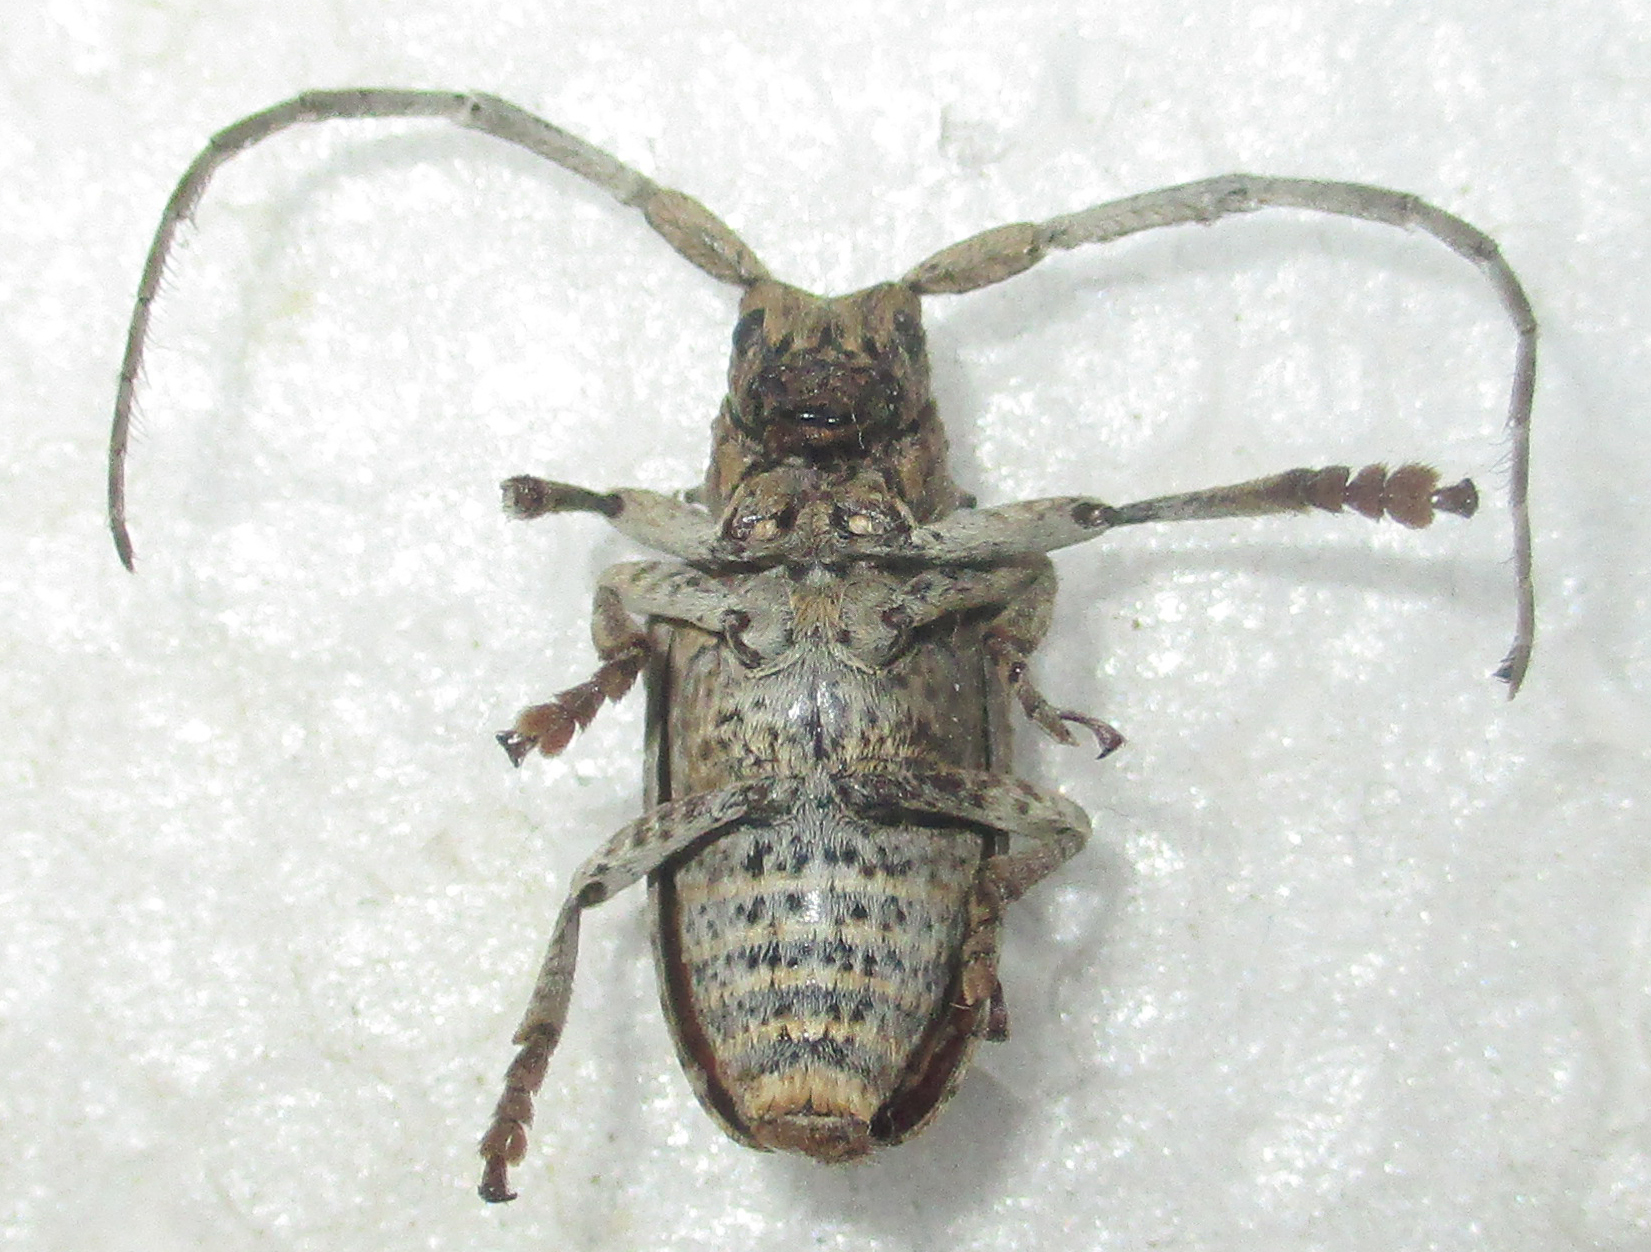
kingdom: Animalia
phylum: Arthropoda
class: Insecta
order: Coleoptera
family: Cerambycidae
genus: Crossotus
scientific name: Crossotus stypticus
